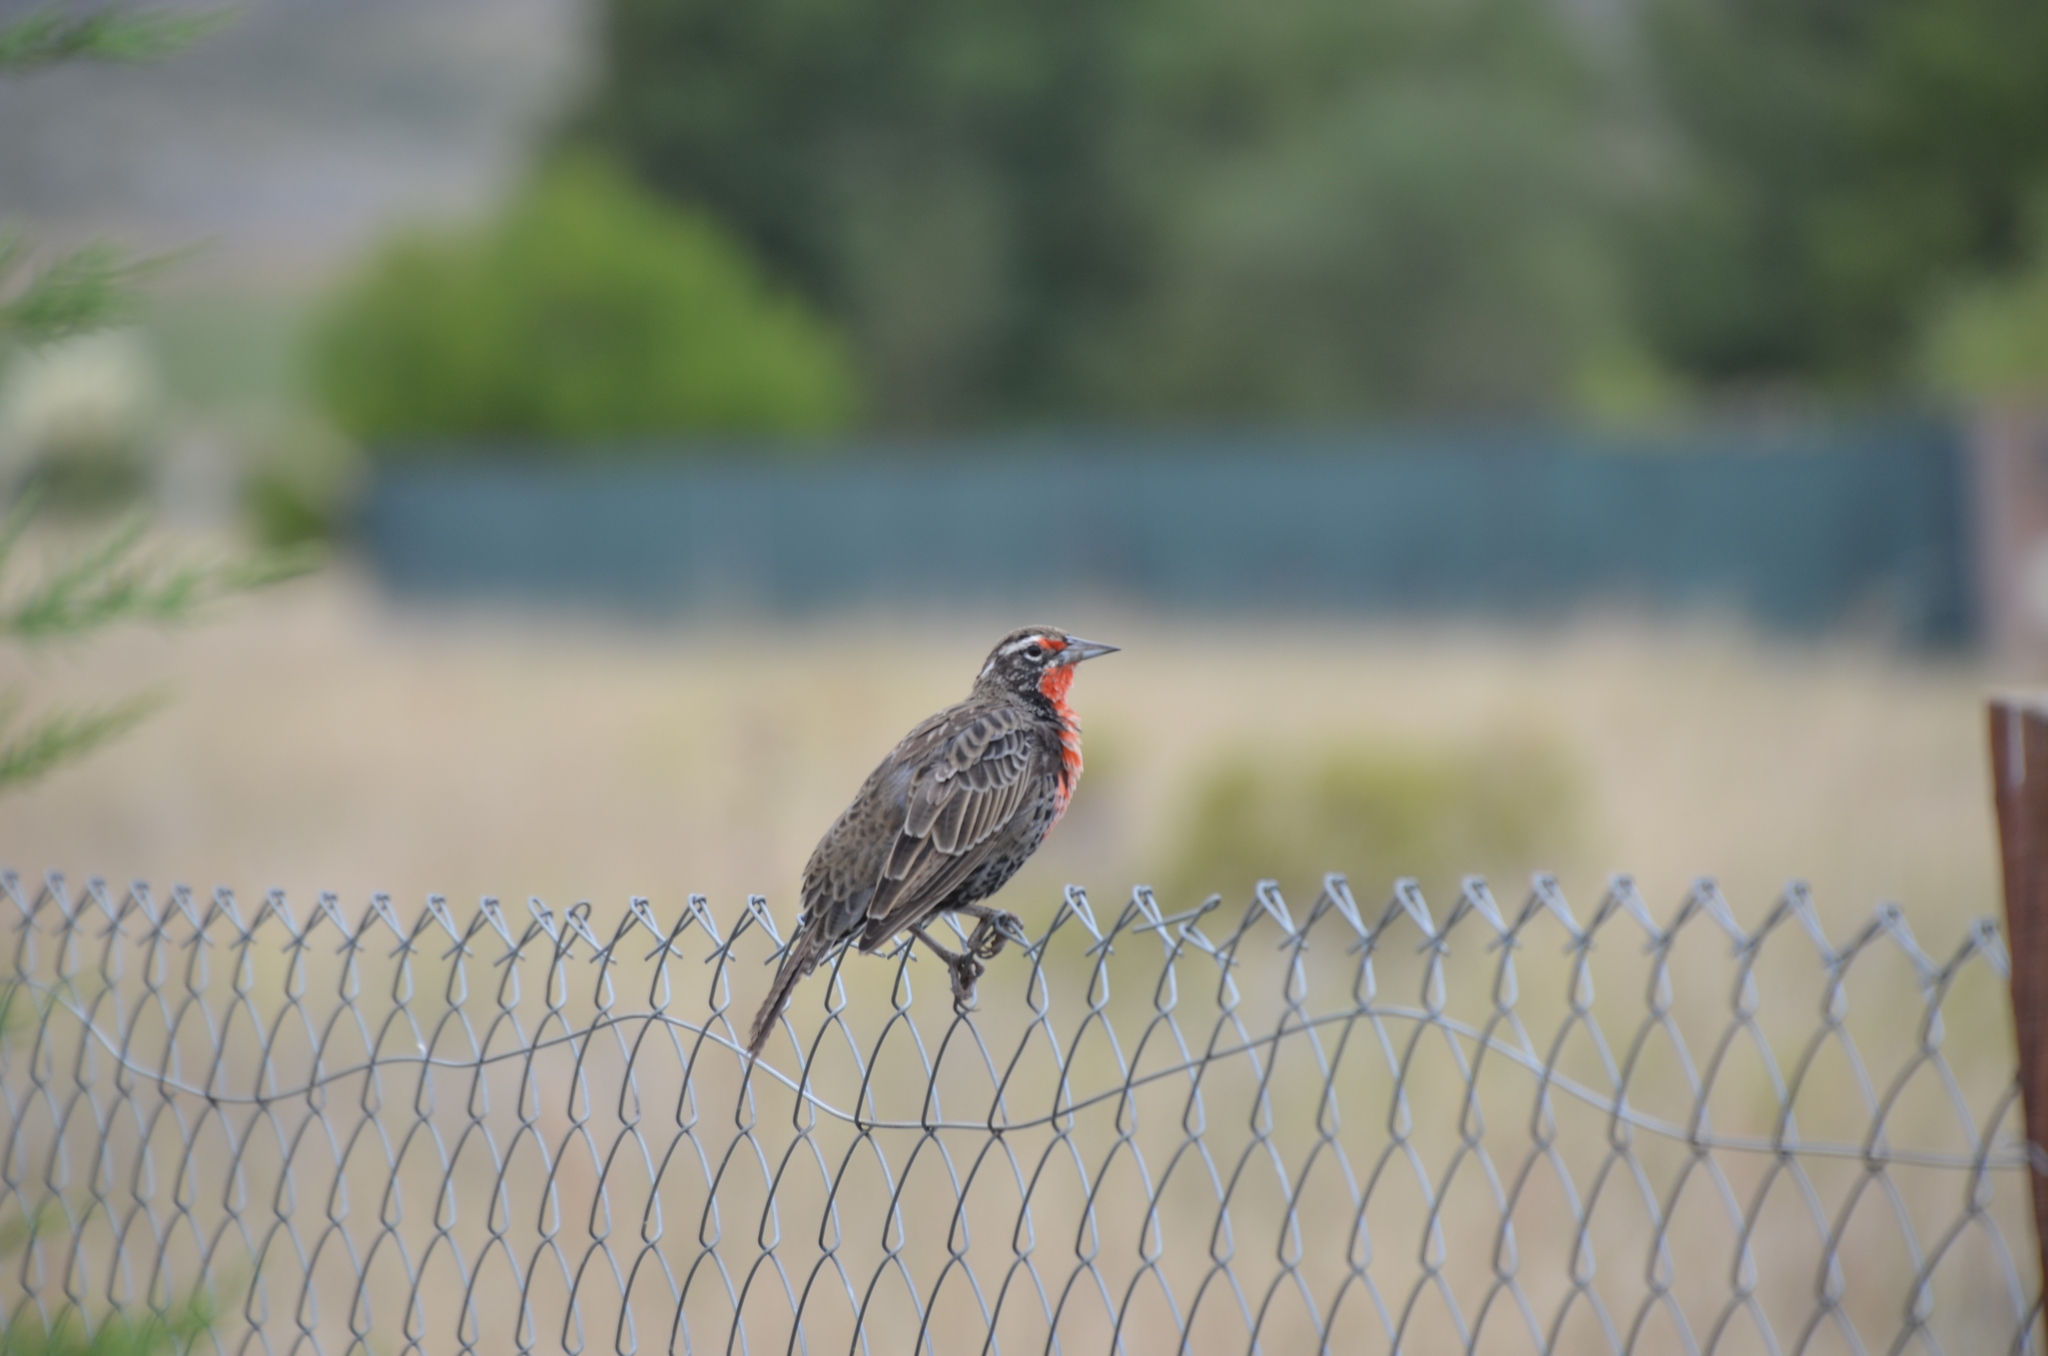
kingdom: Animalia
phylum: Chordata
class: Aves
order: Passeriformes
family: Icteridae
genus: Sturnella
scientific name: Sturnella loyca
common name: Long-tailed meadowlark
